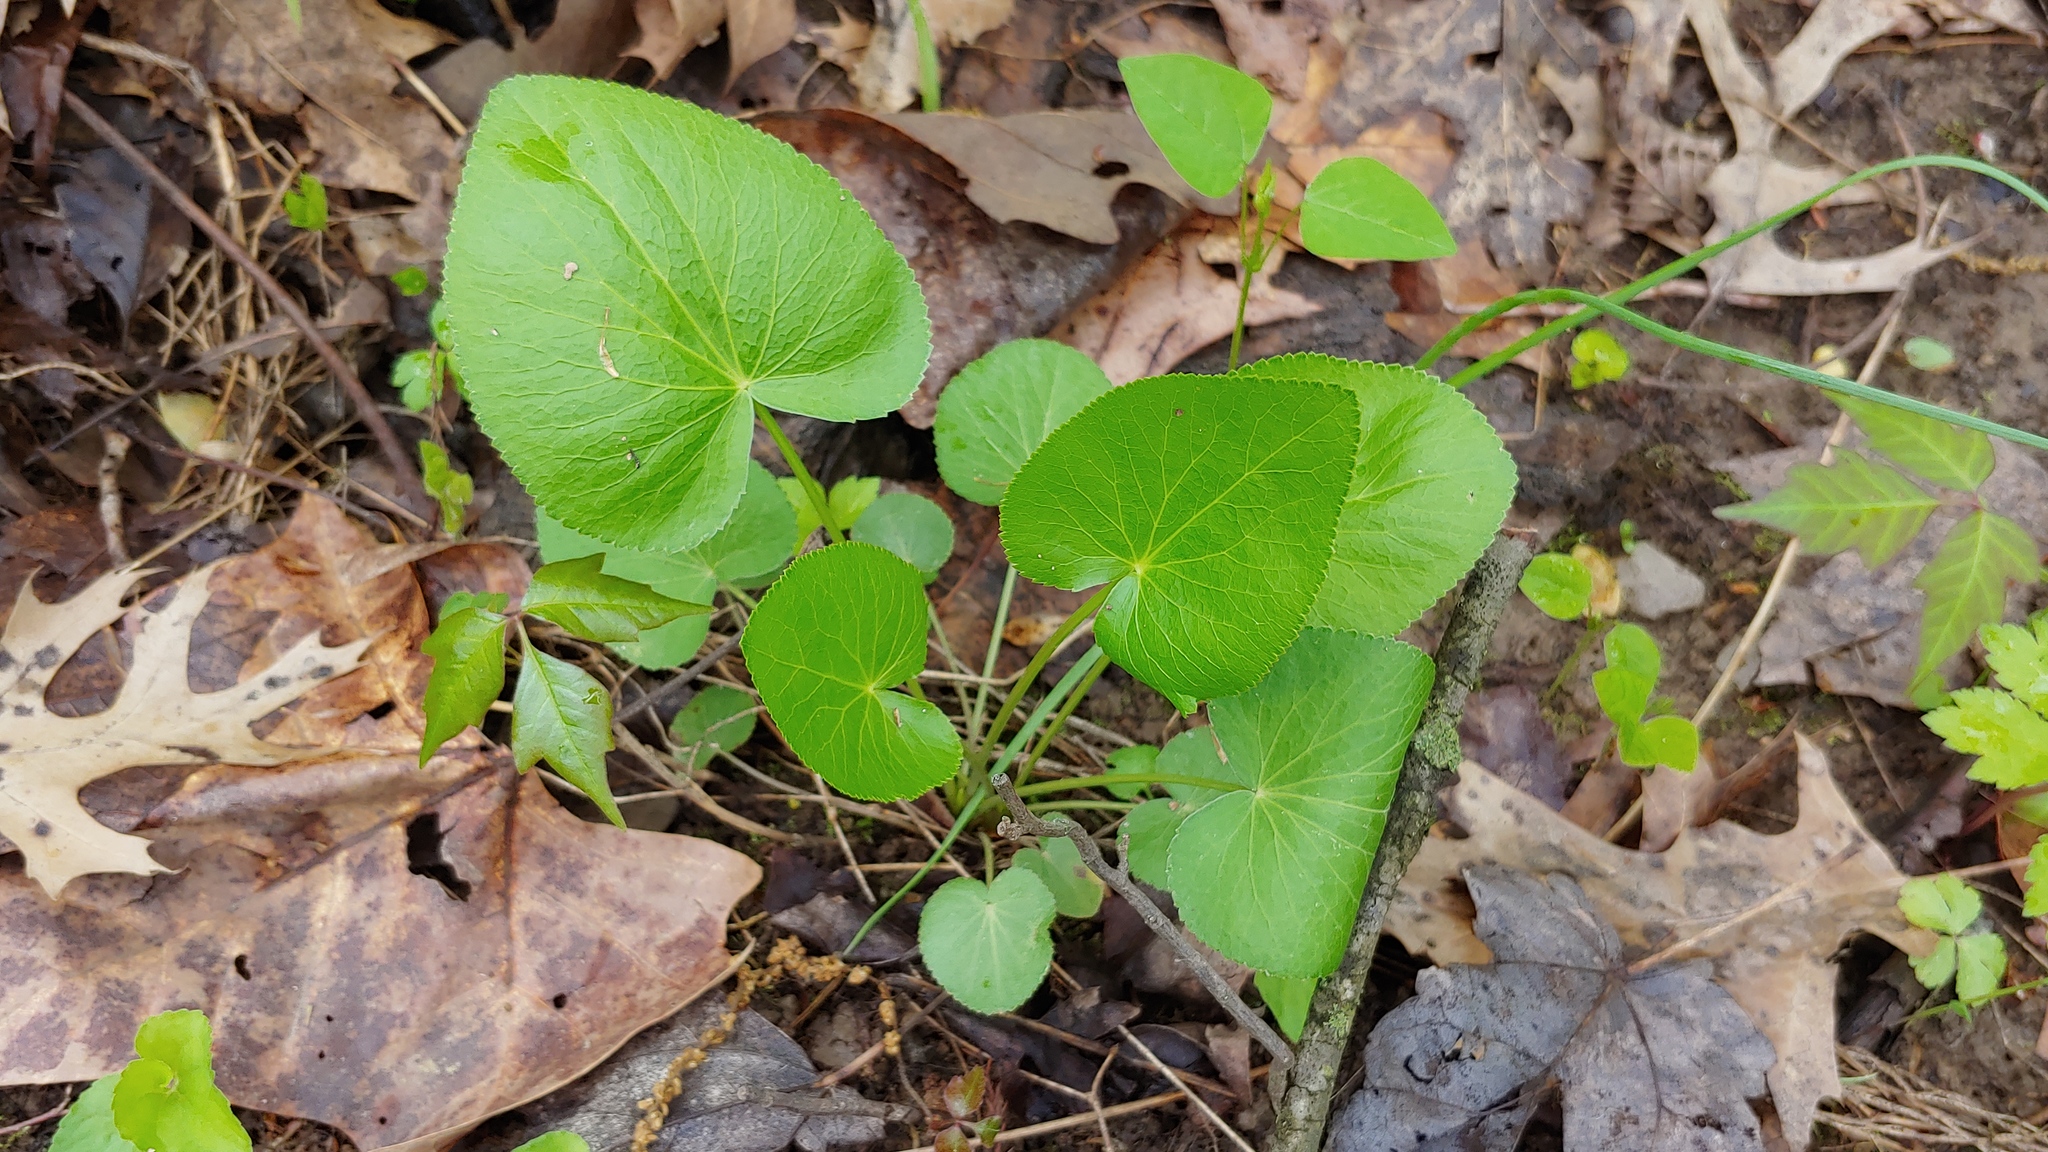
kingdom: Plantae
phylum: Tracheophyta
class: Magnoliopsida
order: Apiales
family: Apiaceae
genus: Thaspium
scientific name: Thaspium trifoliatum
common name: Purple meadow-parsnip
